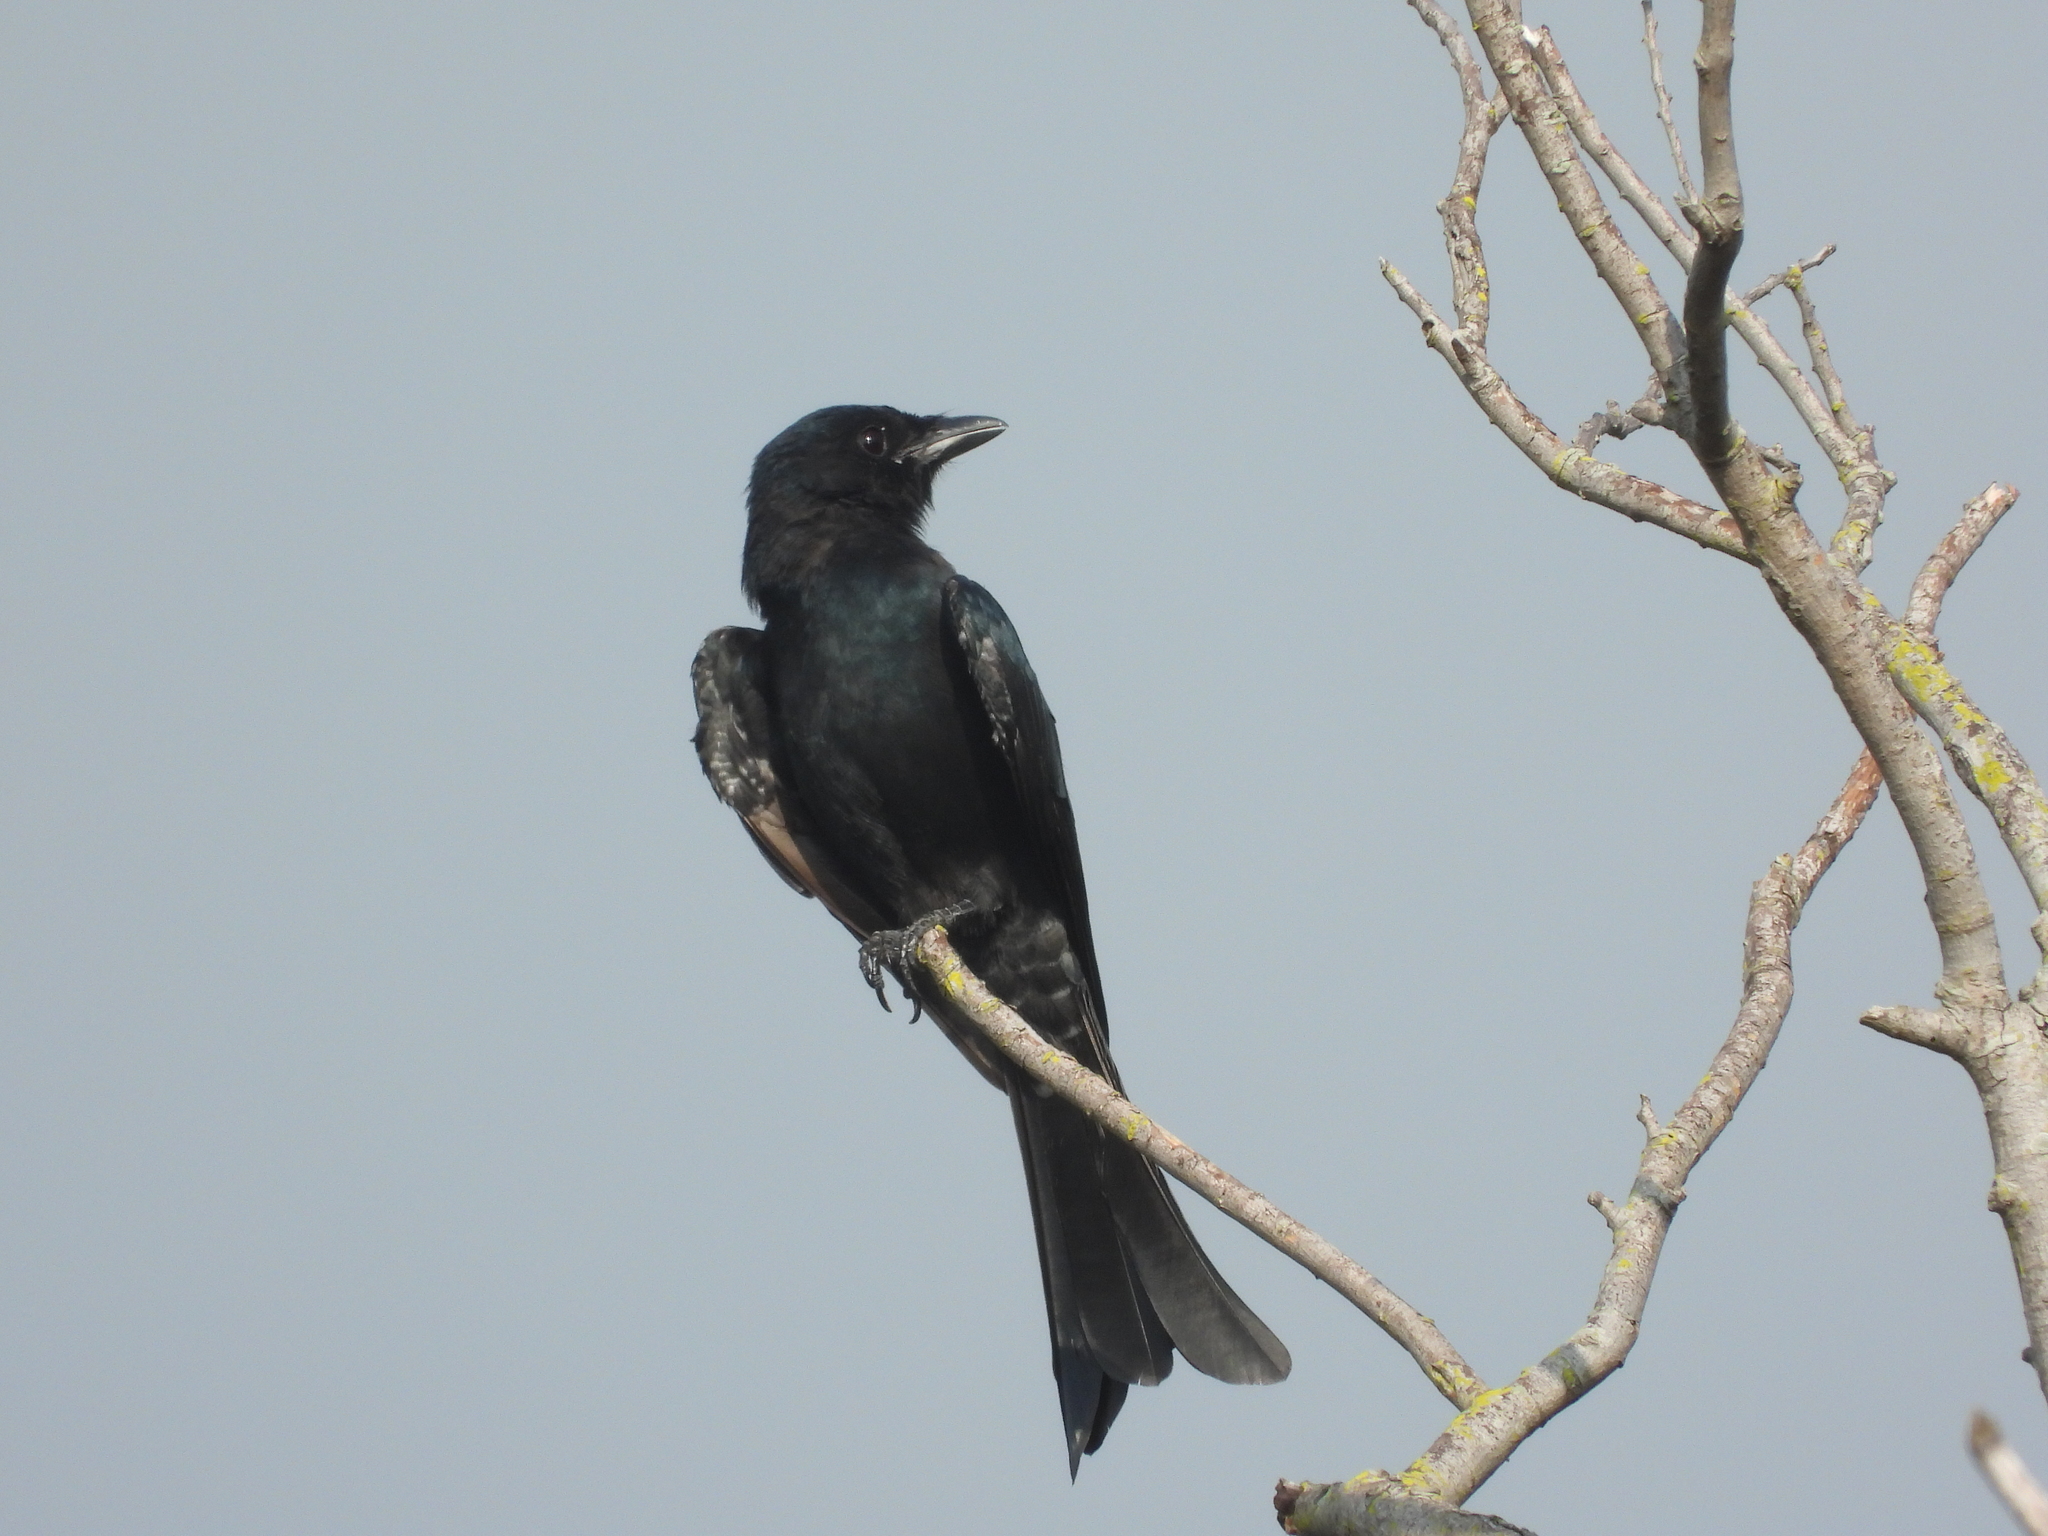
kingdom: Animalia
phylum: Chordata
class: Aves
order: Passeriformes
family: Dicruridae
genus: Dicrurus
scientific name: Dicrurus macrocercus
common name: Black drongo
